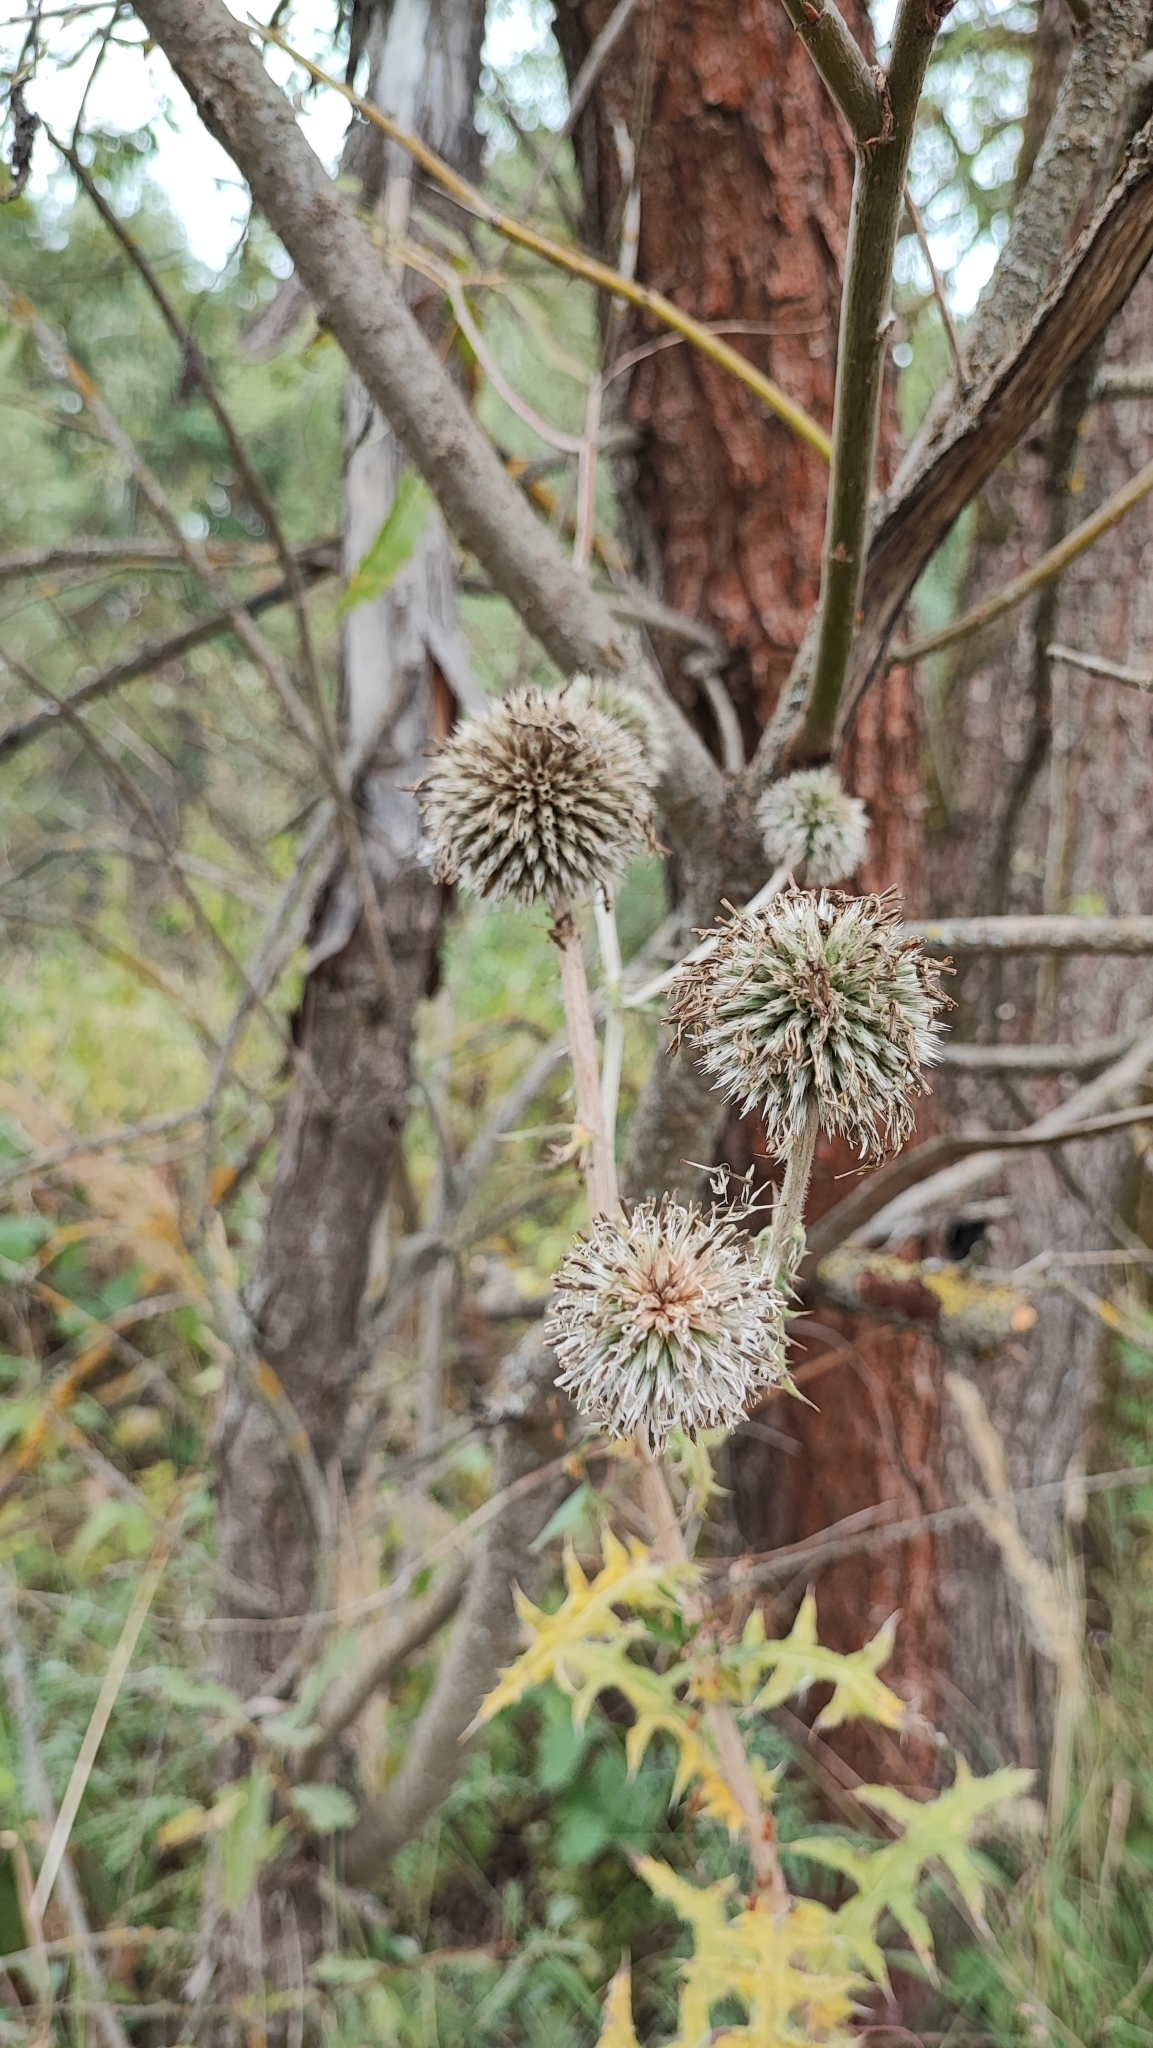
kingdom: Plantae
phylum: Tracheophyta
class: Magnoliopsida
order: Asterales
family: Asteraceae
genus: Echinops
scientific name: Echinops sphaerocephalus
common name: Glandular globe-thistle
